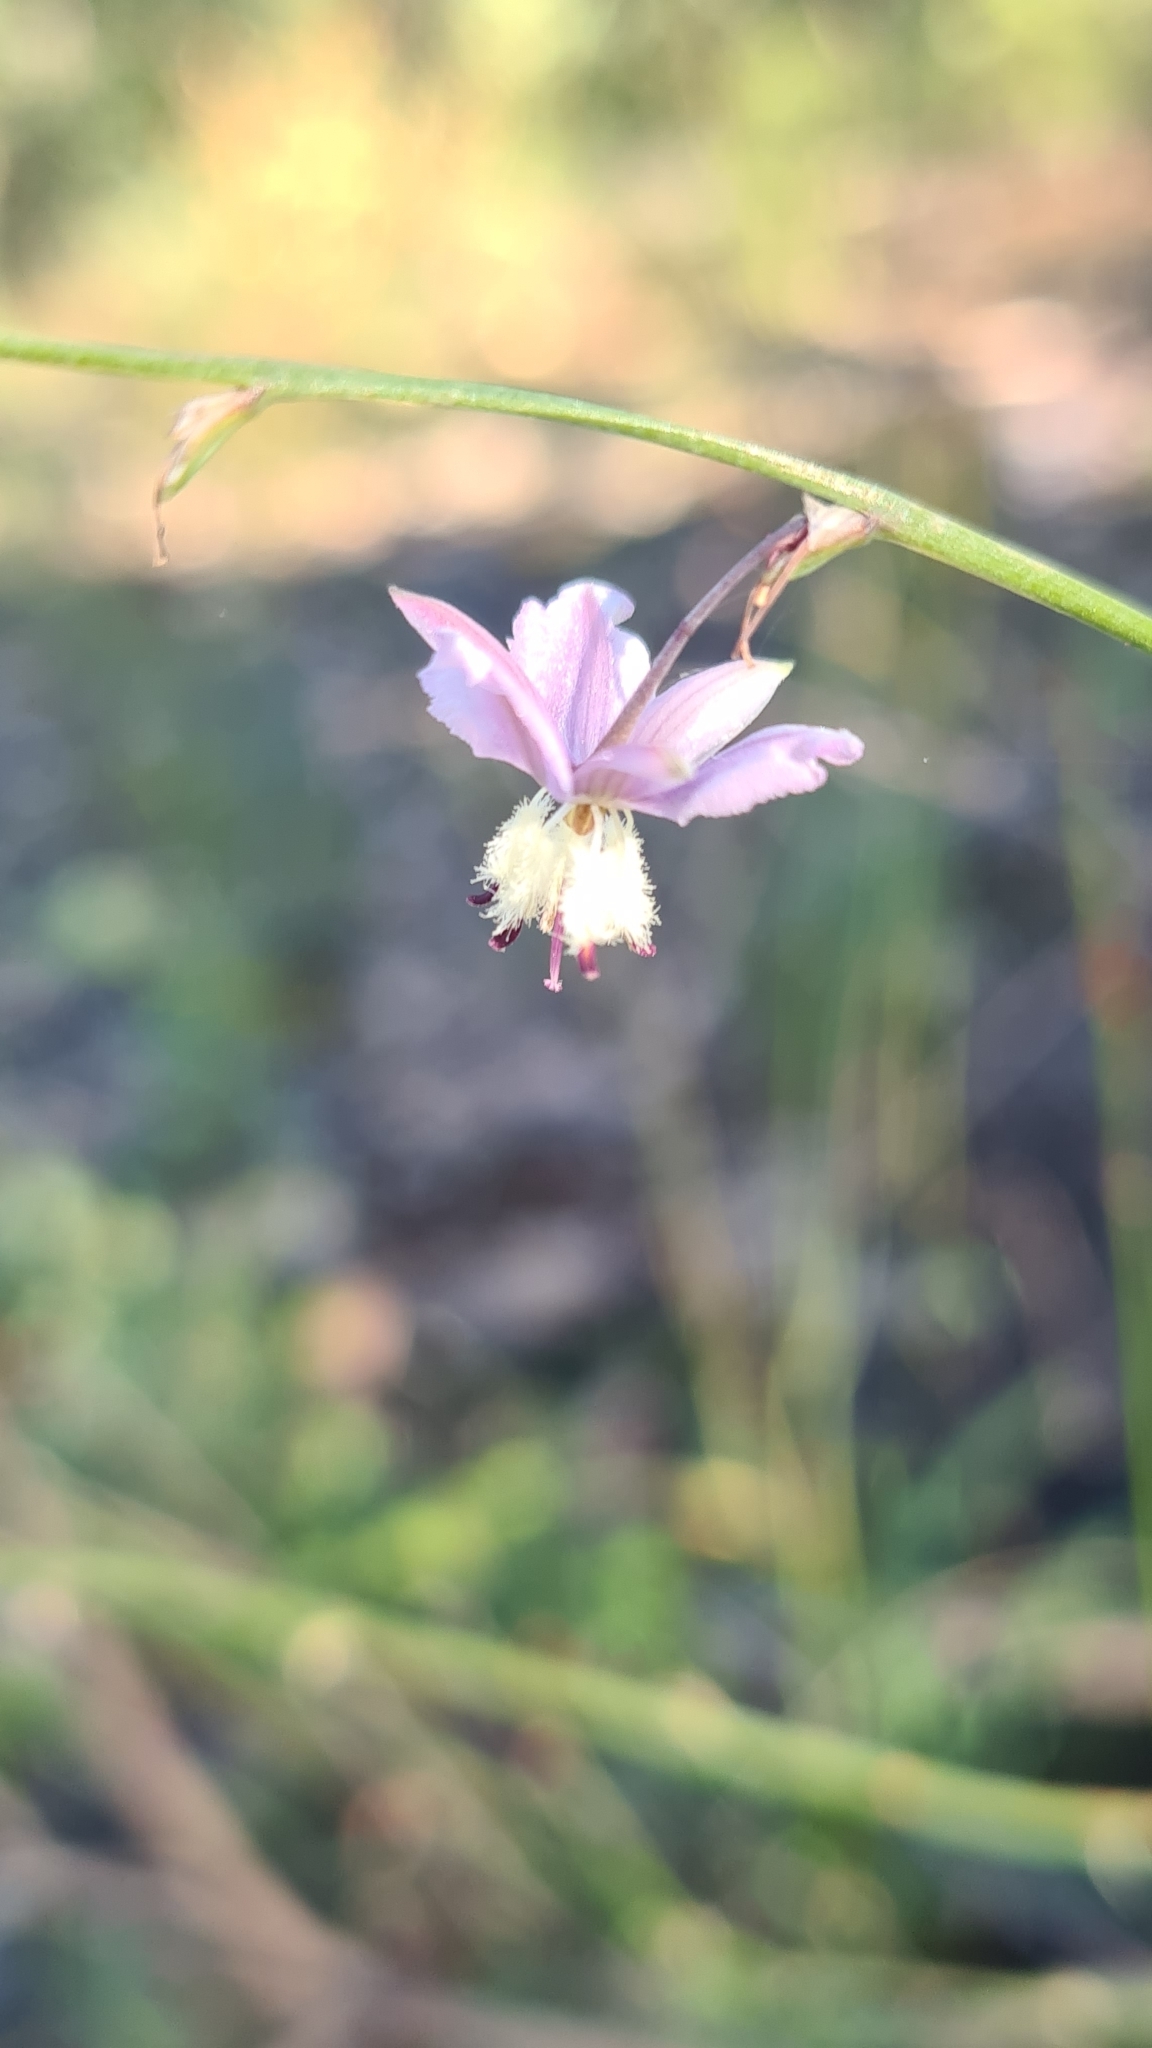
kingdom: Plantae
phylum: Tracheophyta
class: Liliopsida
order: Asparagales
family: Asparagaceae
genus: Arthropodium
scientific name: Arthropodium milleflorum
